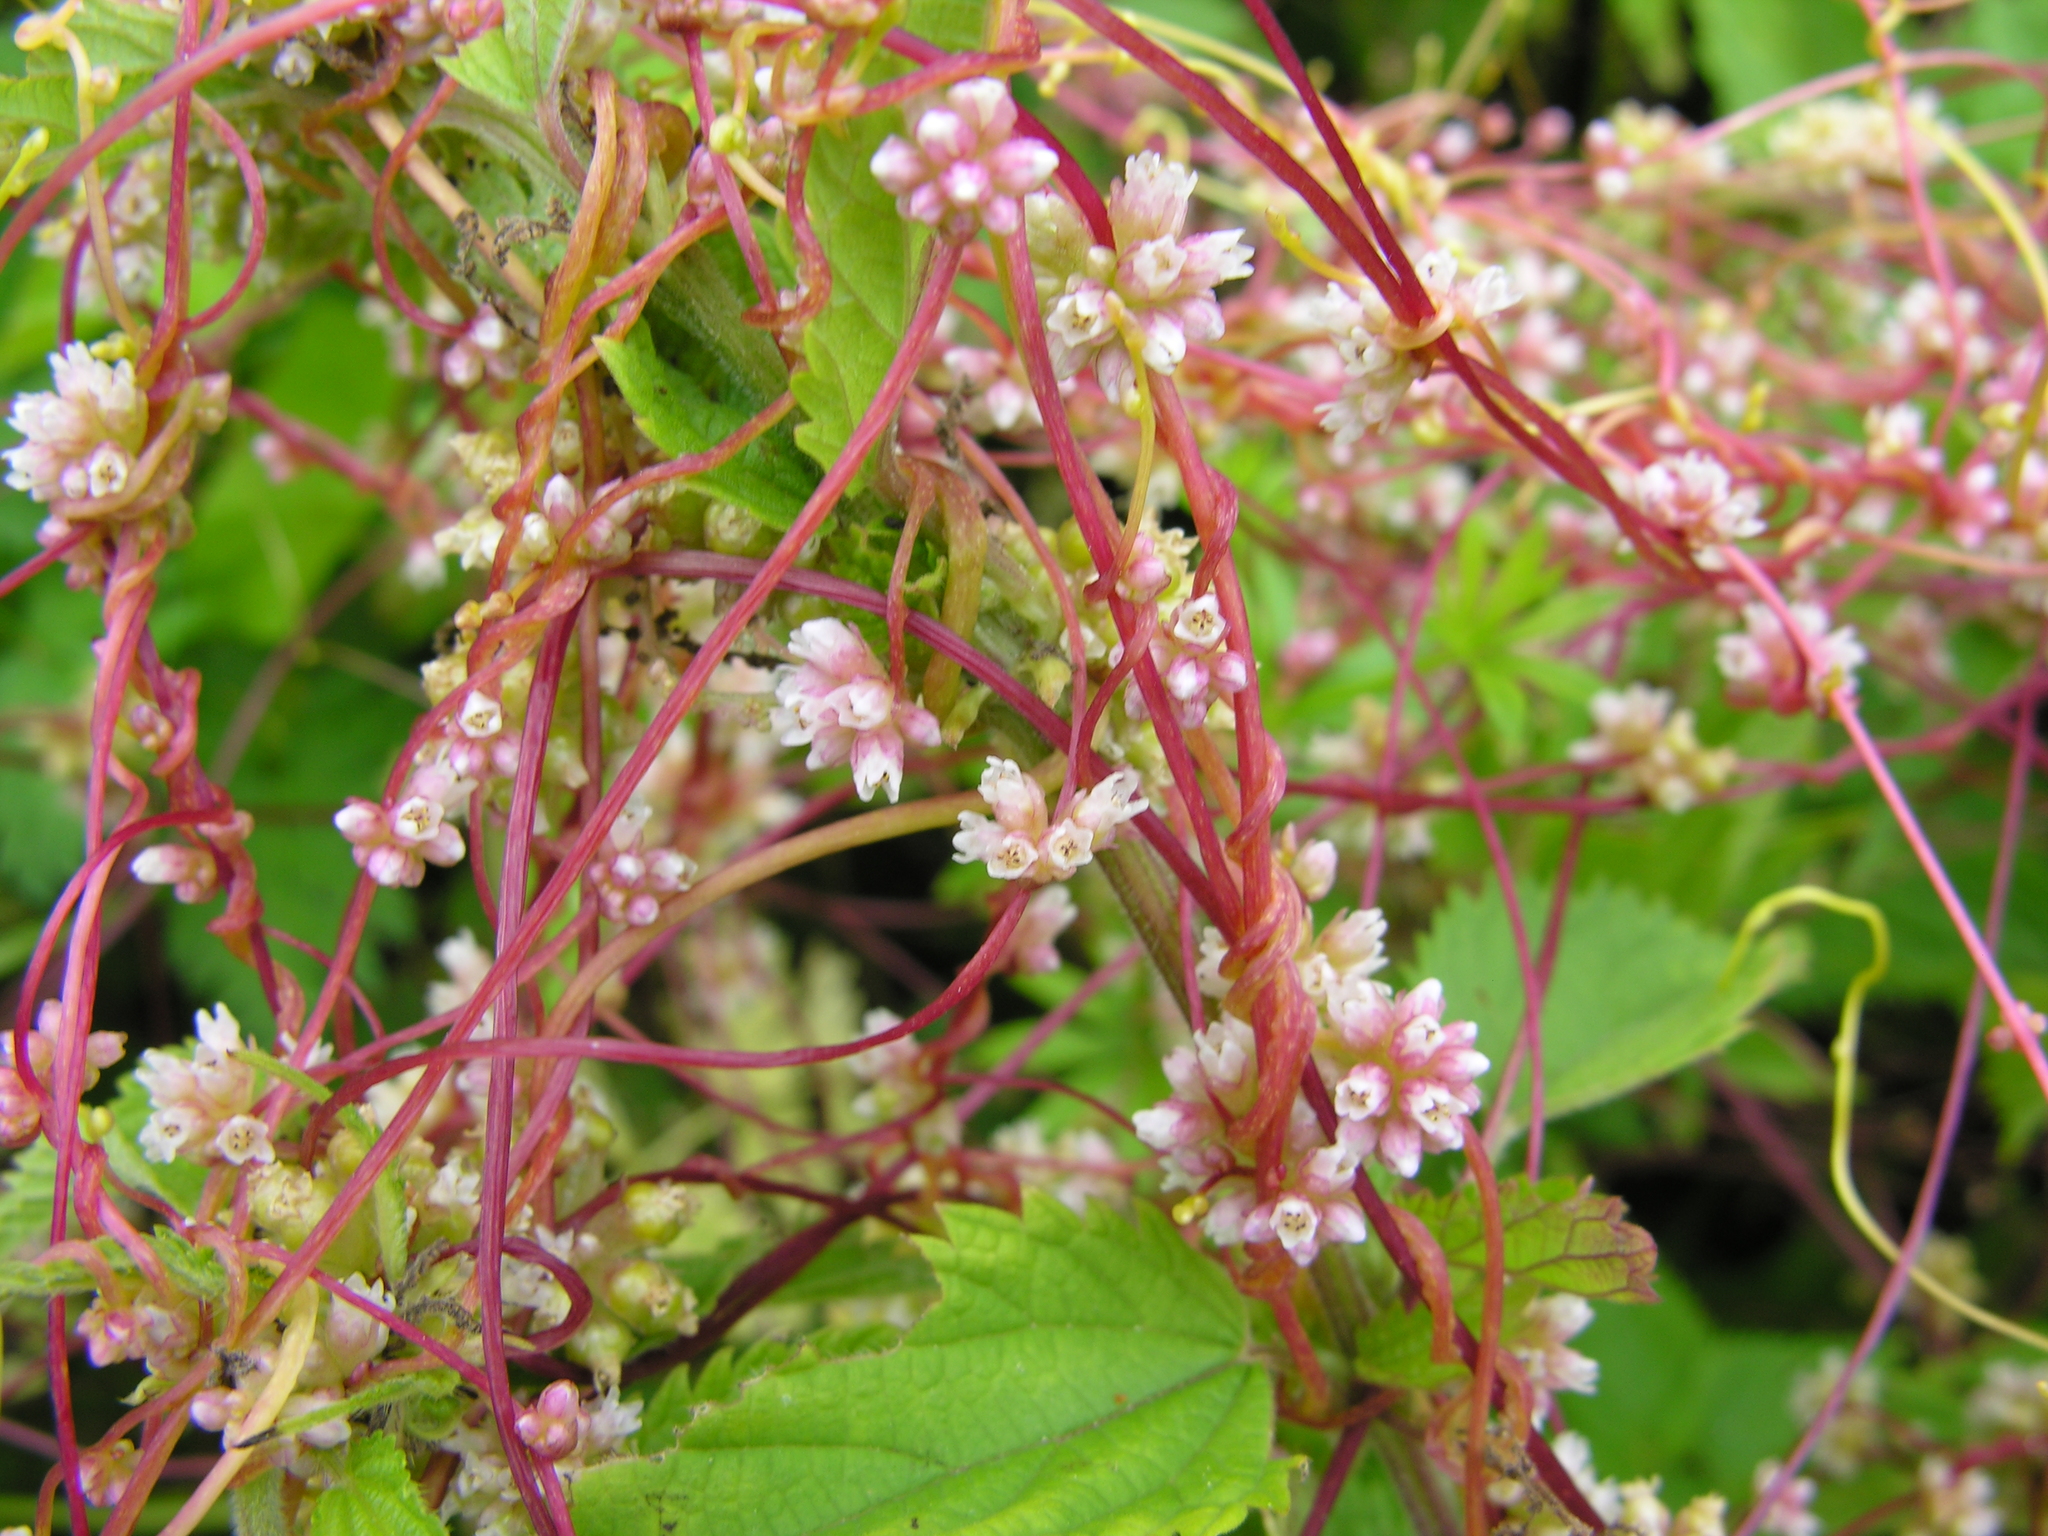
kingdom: Plantae
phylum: Tracheophyta
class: Magnoliopsida
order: Solanales
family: Convolvulaceae
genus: Cuscuta
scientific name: Cuscuta europaea
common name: Greater dodder
